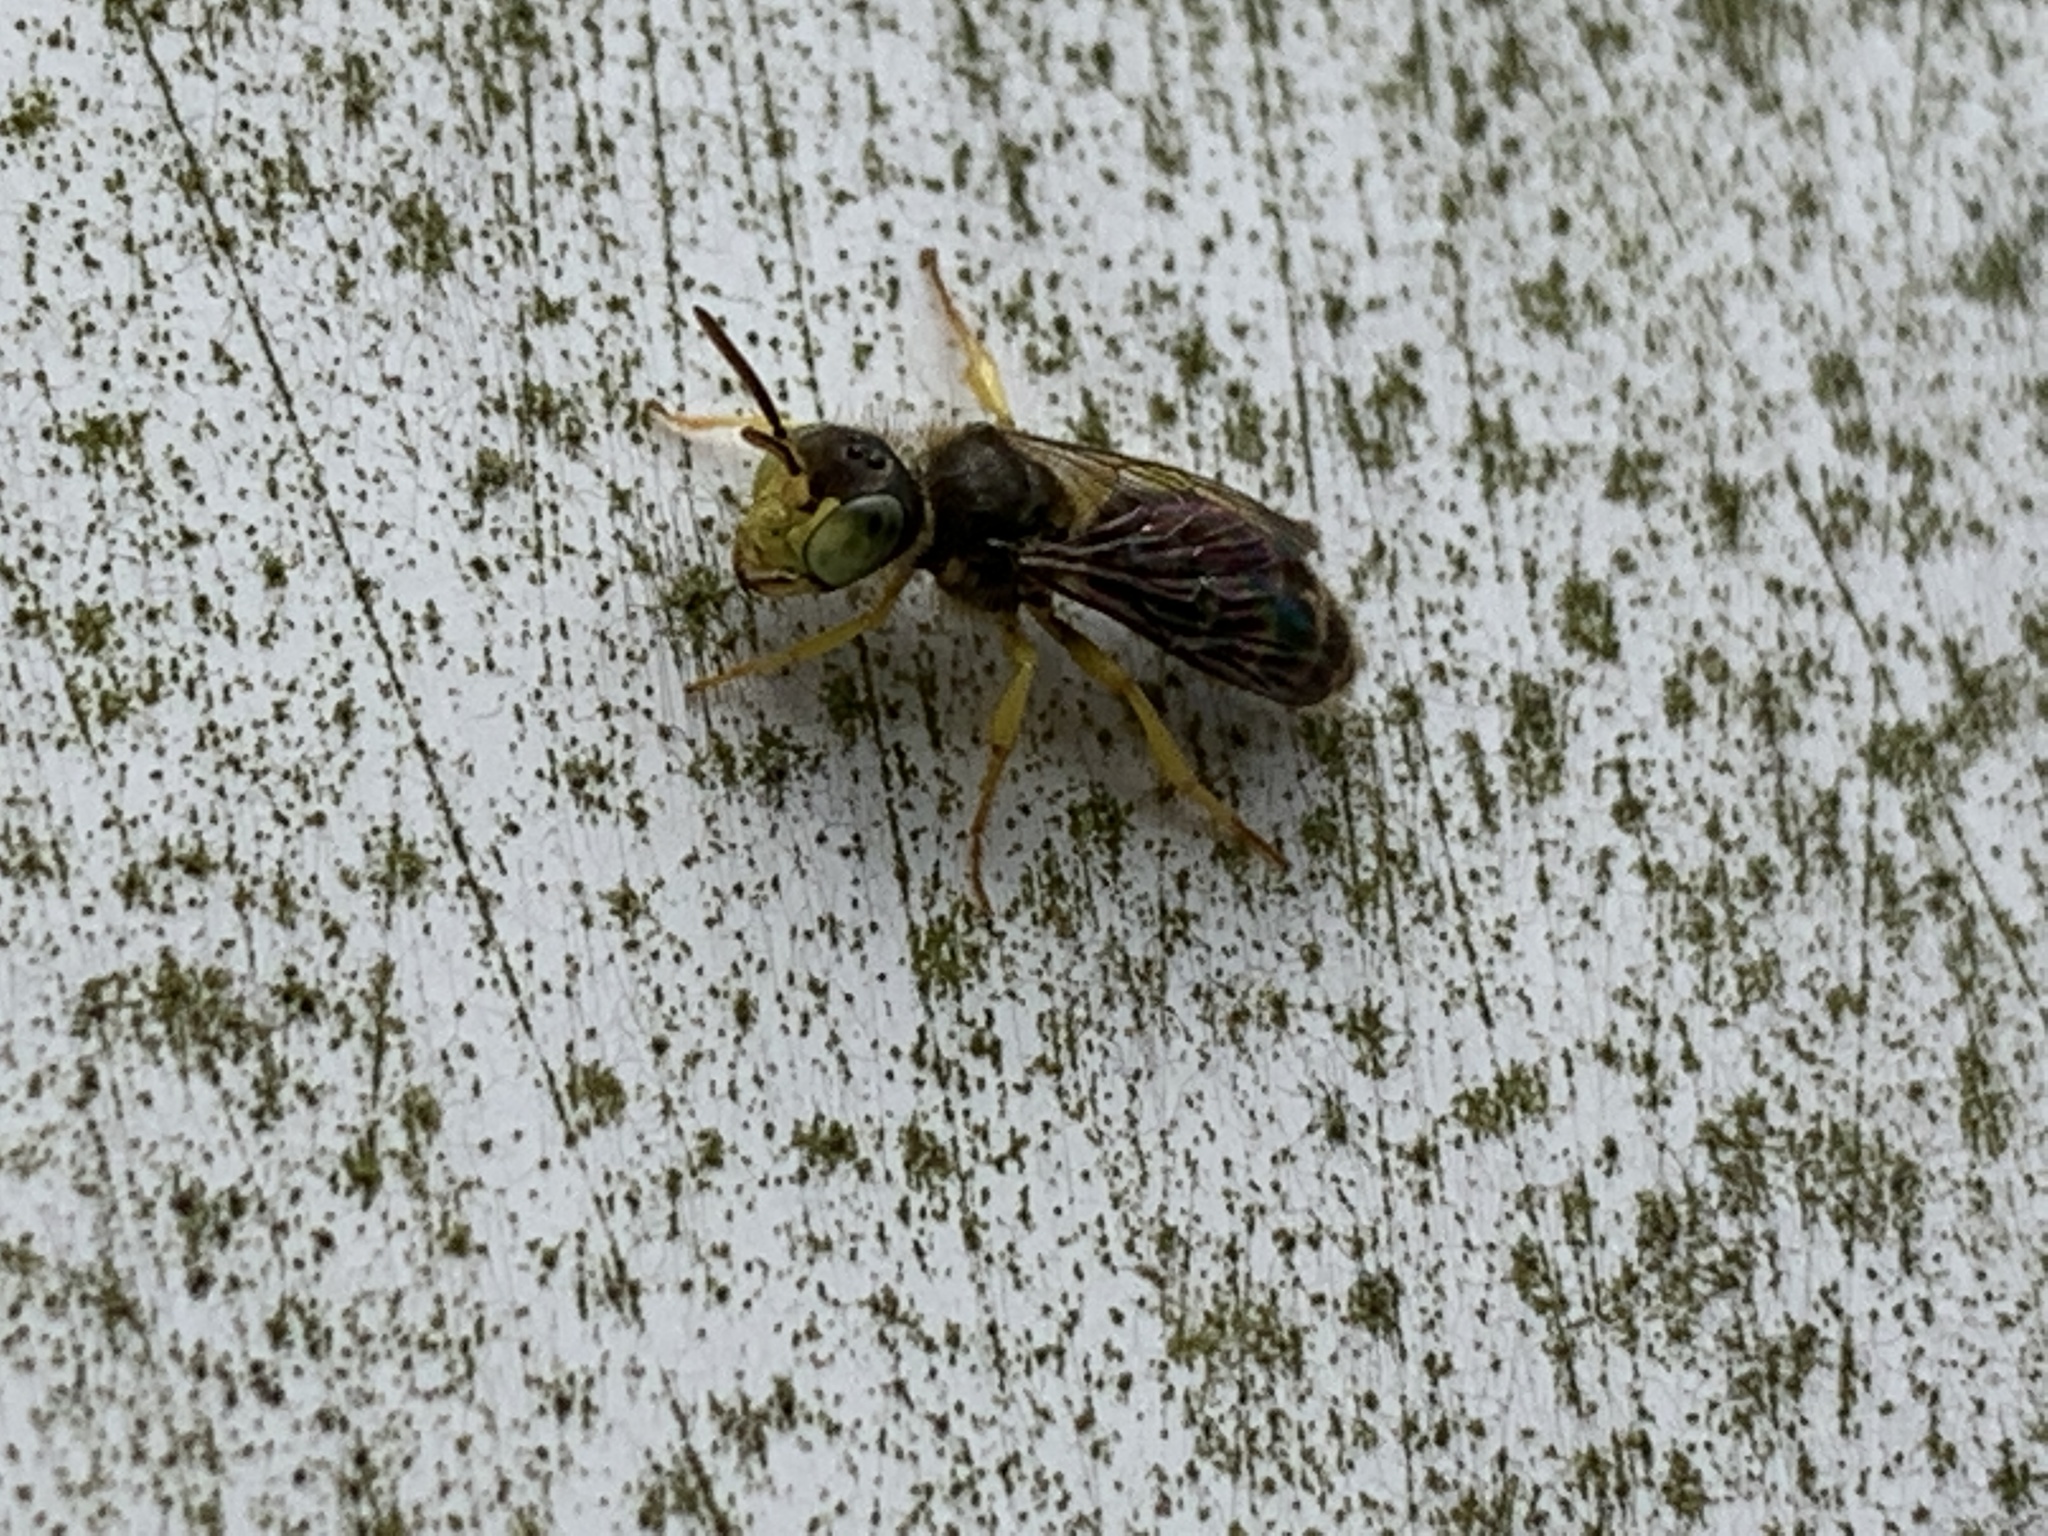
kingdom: Animalia
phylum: Arthropoda
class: Insecta
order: Hymenoptera
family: Andrenidae
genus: Calliopsis
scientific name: Calliopsis andreniformis
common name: Eastern calliopsis bee
